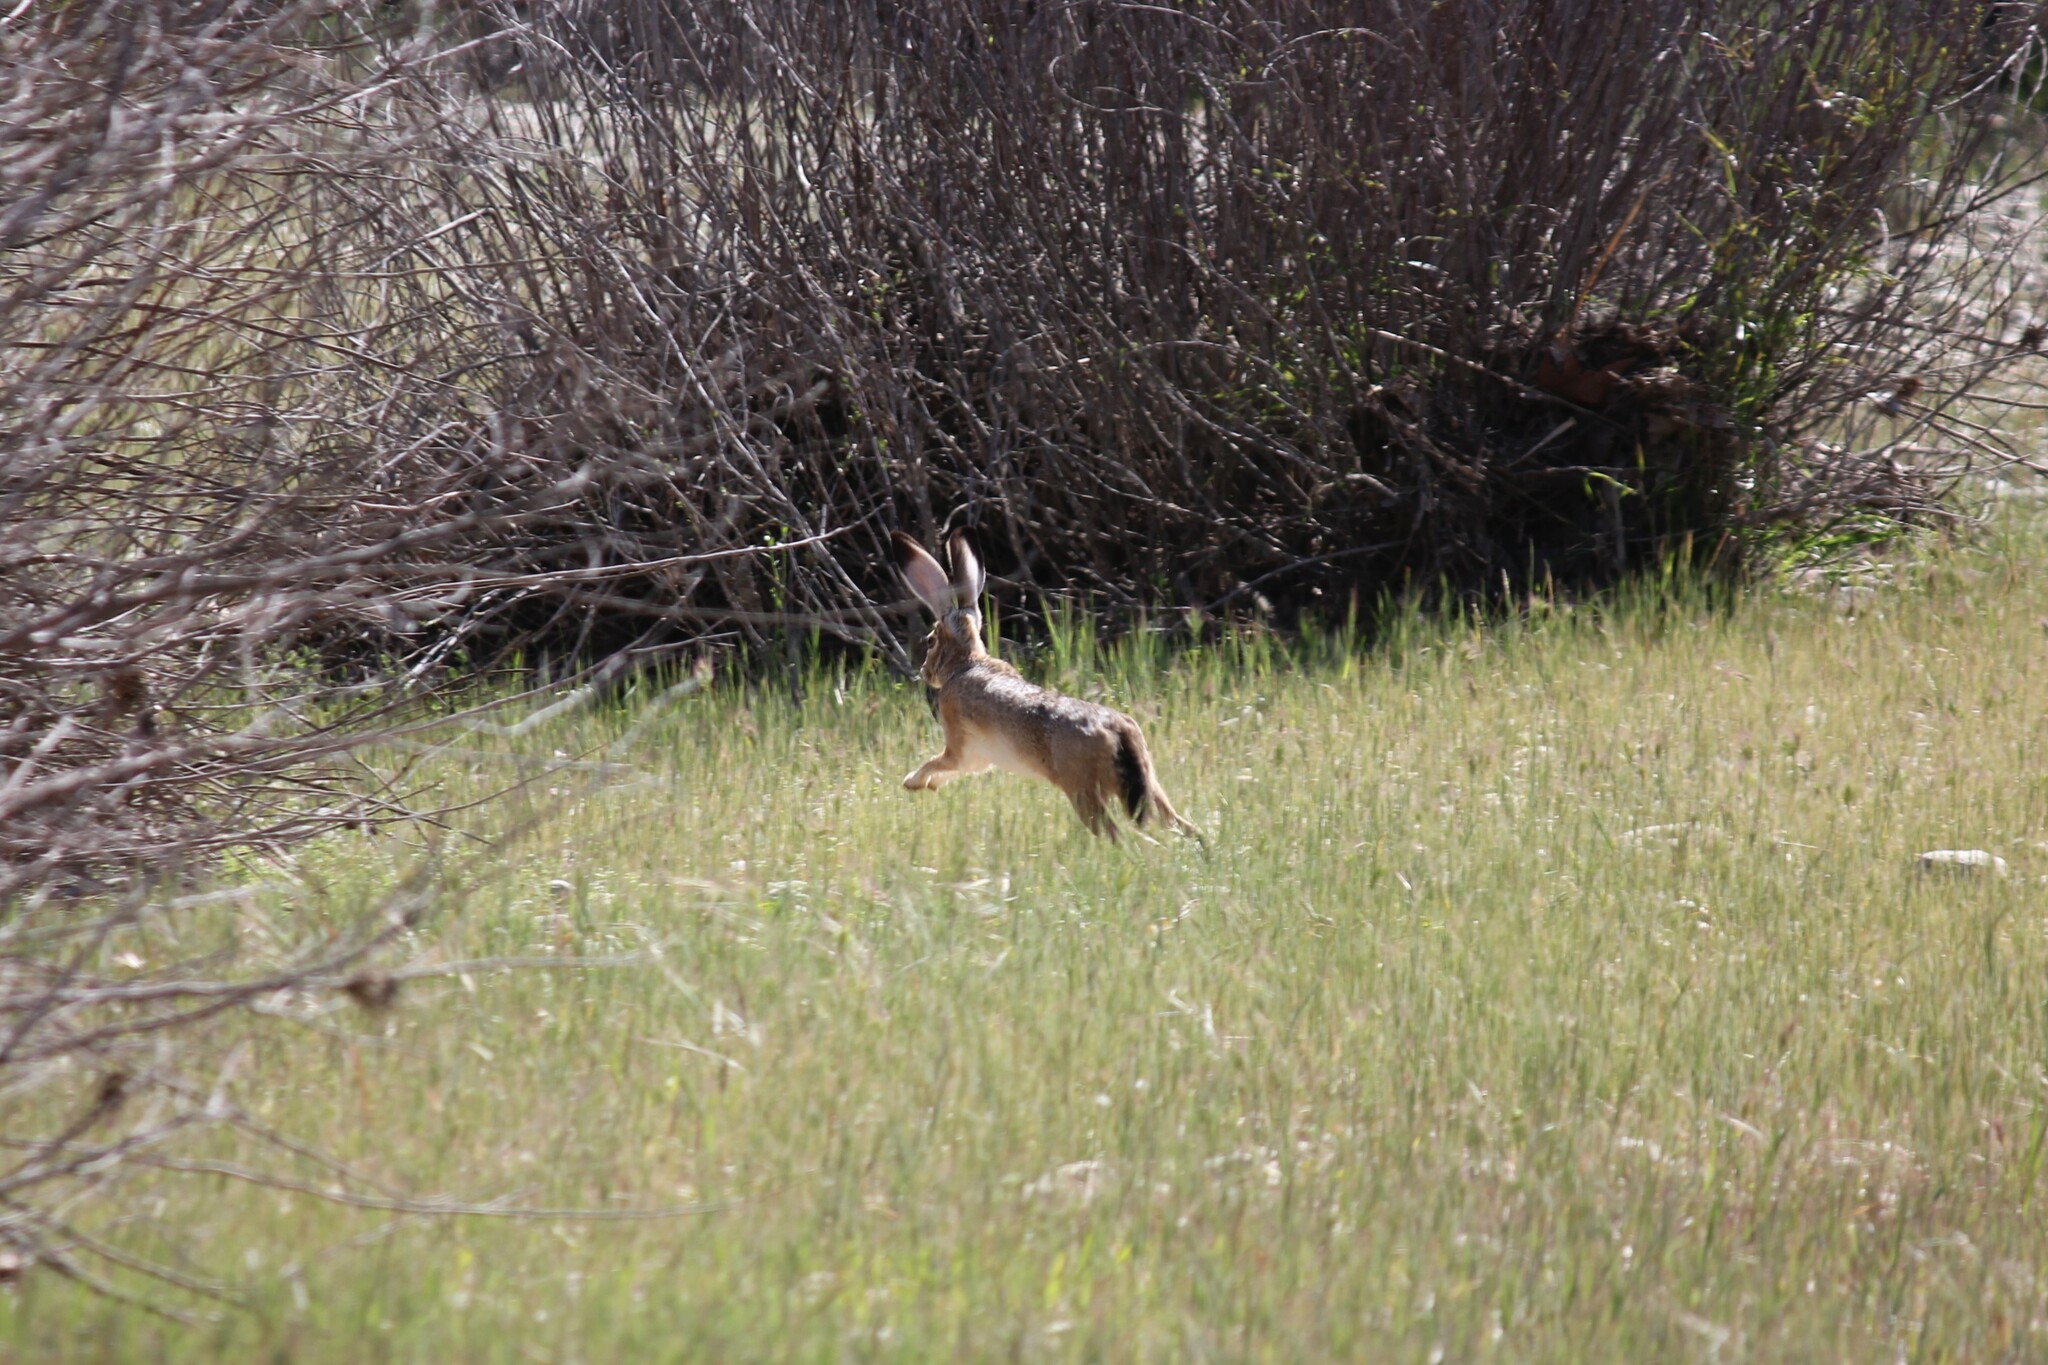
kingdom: Animalia
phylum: Chordata
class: Mammalia
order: Lagomorpha
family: Leporidae
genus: Lepus
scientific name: Lepus californicus
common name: Black-tailed jackrabbit
